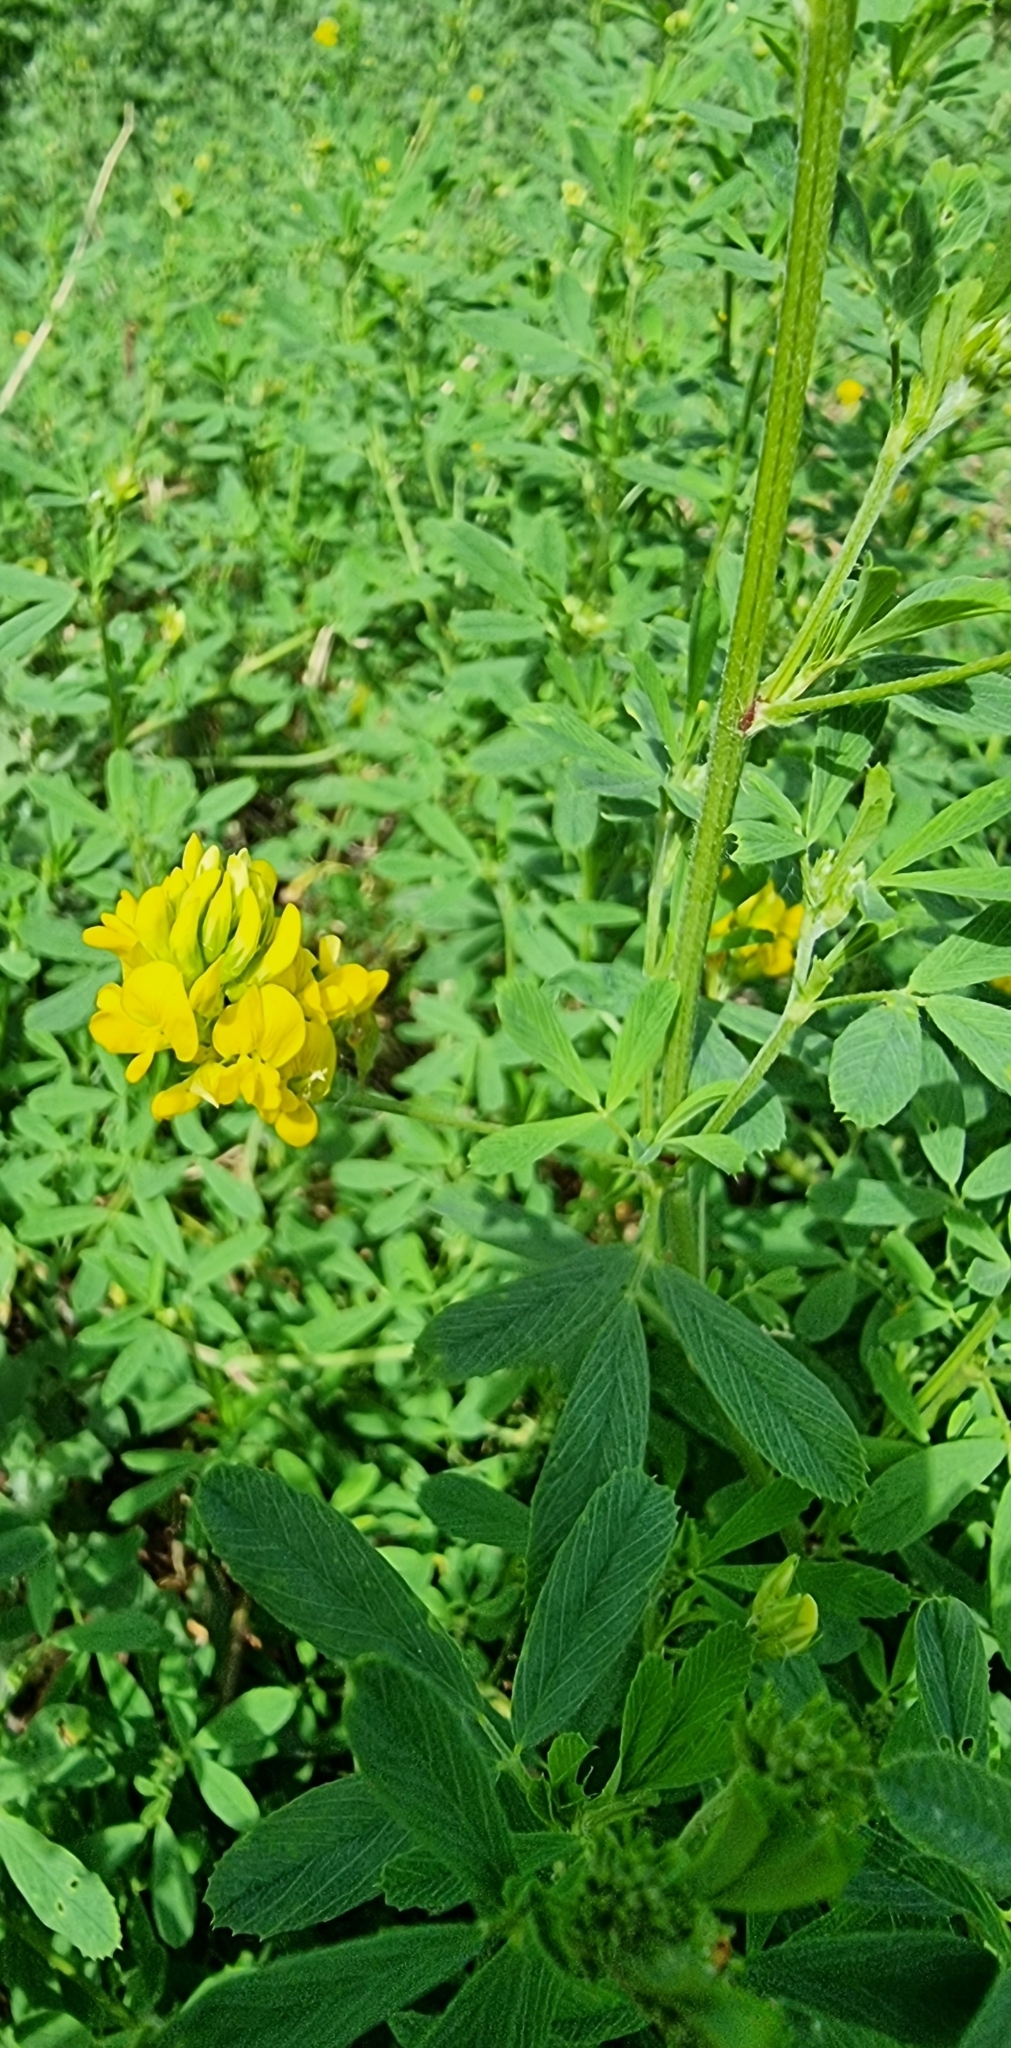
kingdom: Plantae
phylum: Tracheophyta
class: Magnoliopsida
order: Fabales
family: Fabaceae
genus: Medicago
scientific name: Medicago falcata
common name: Sickle medick
